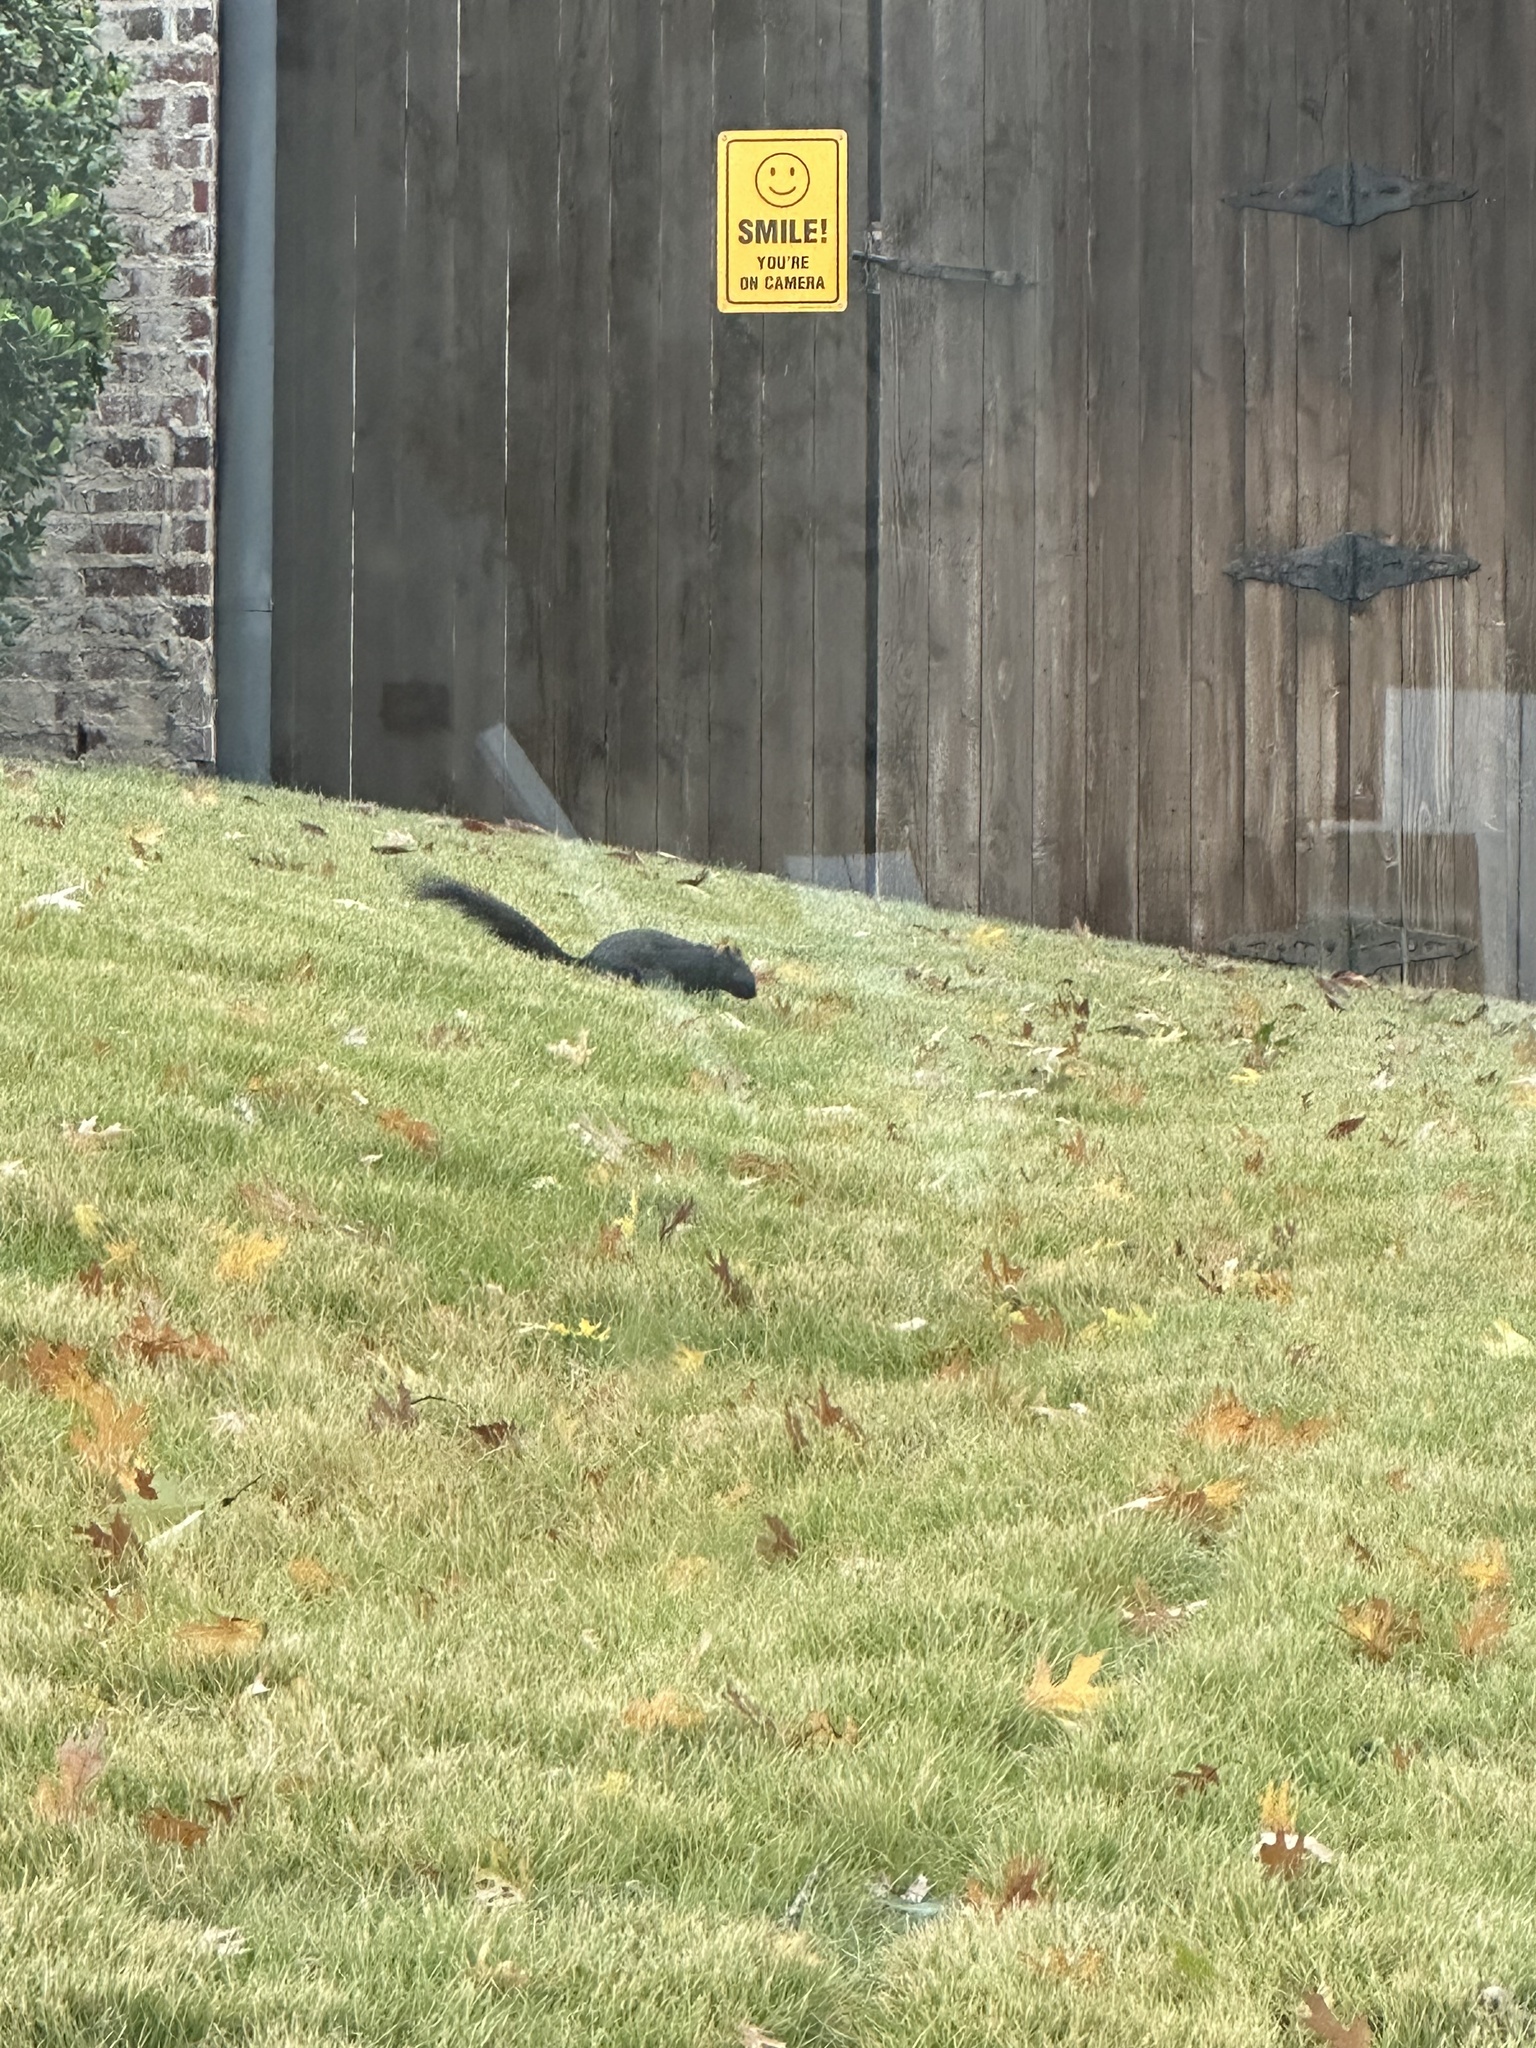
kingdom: Animalia
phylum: Chordata
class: Mammalia
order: Rodentia
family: Sciuridae
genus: Sciurus
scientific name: Sciurus niger
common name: Fox squirrel
